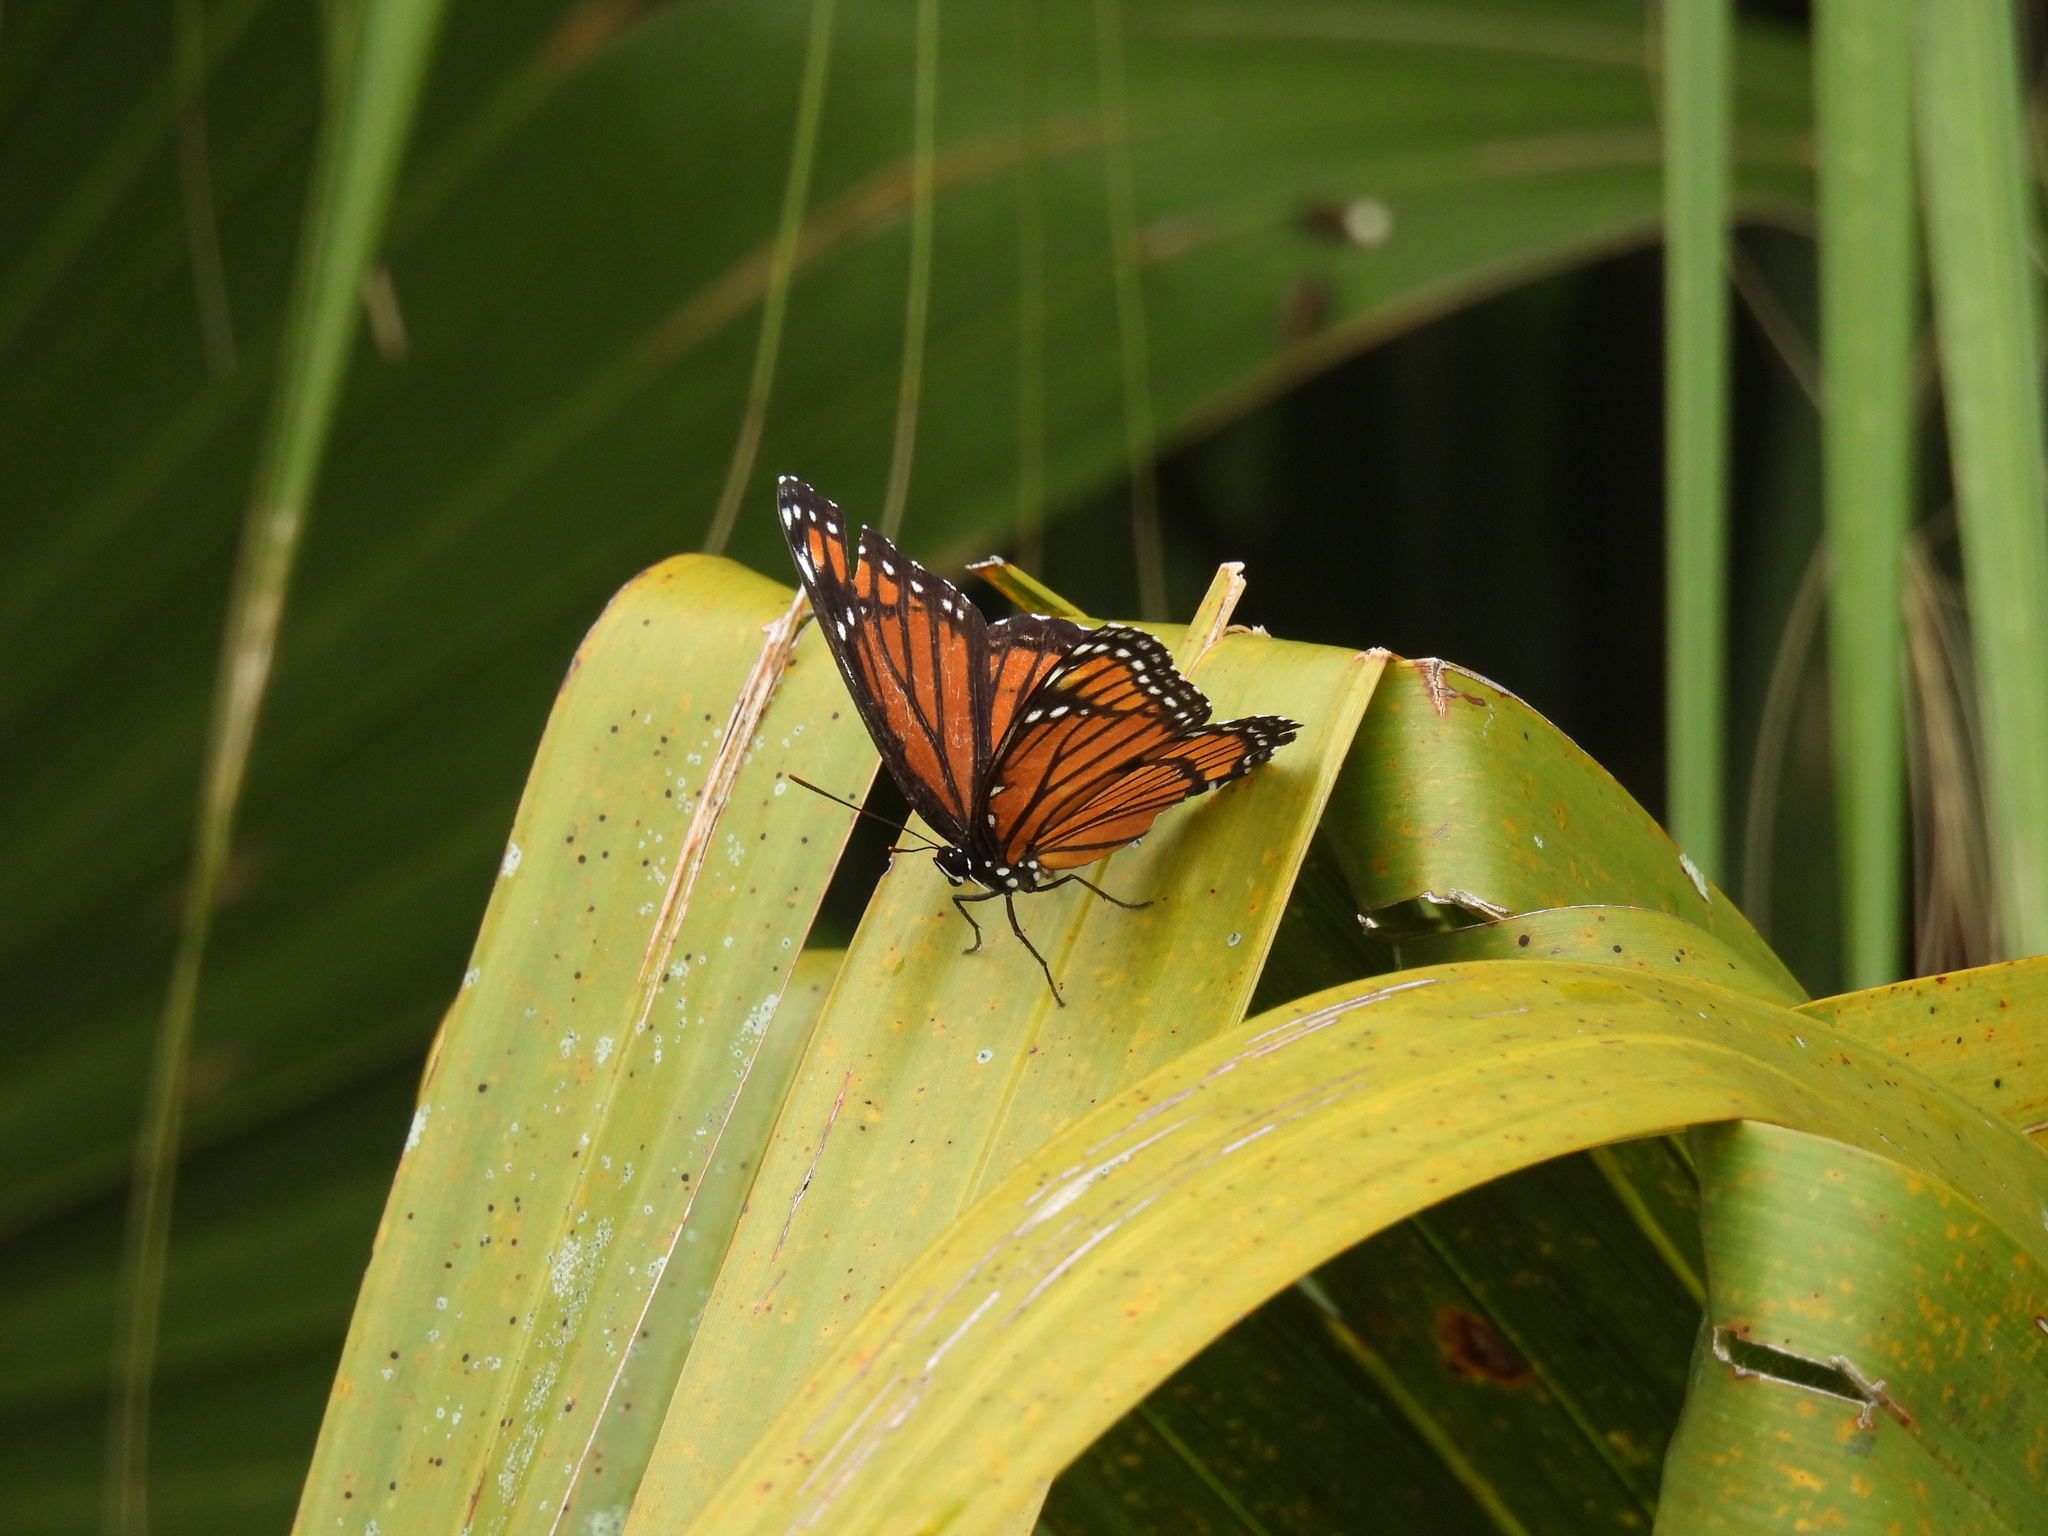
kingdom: Animalia
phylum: Arthropoda
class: Insecta
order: Lepidoptera
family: Nymphalidae
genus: Limenitis
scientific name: Limenitis archippus
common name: Viceroy
